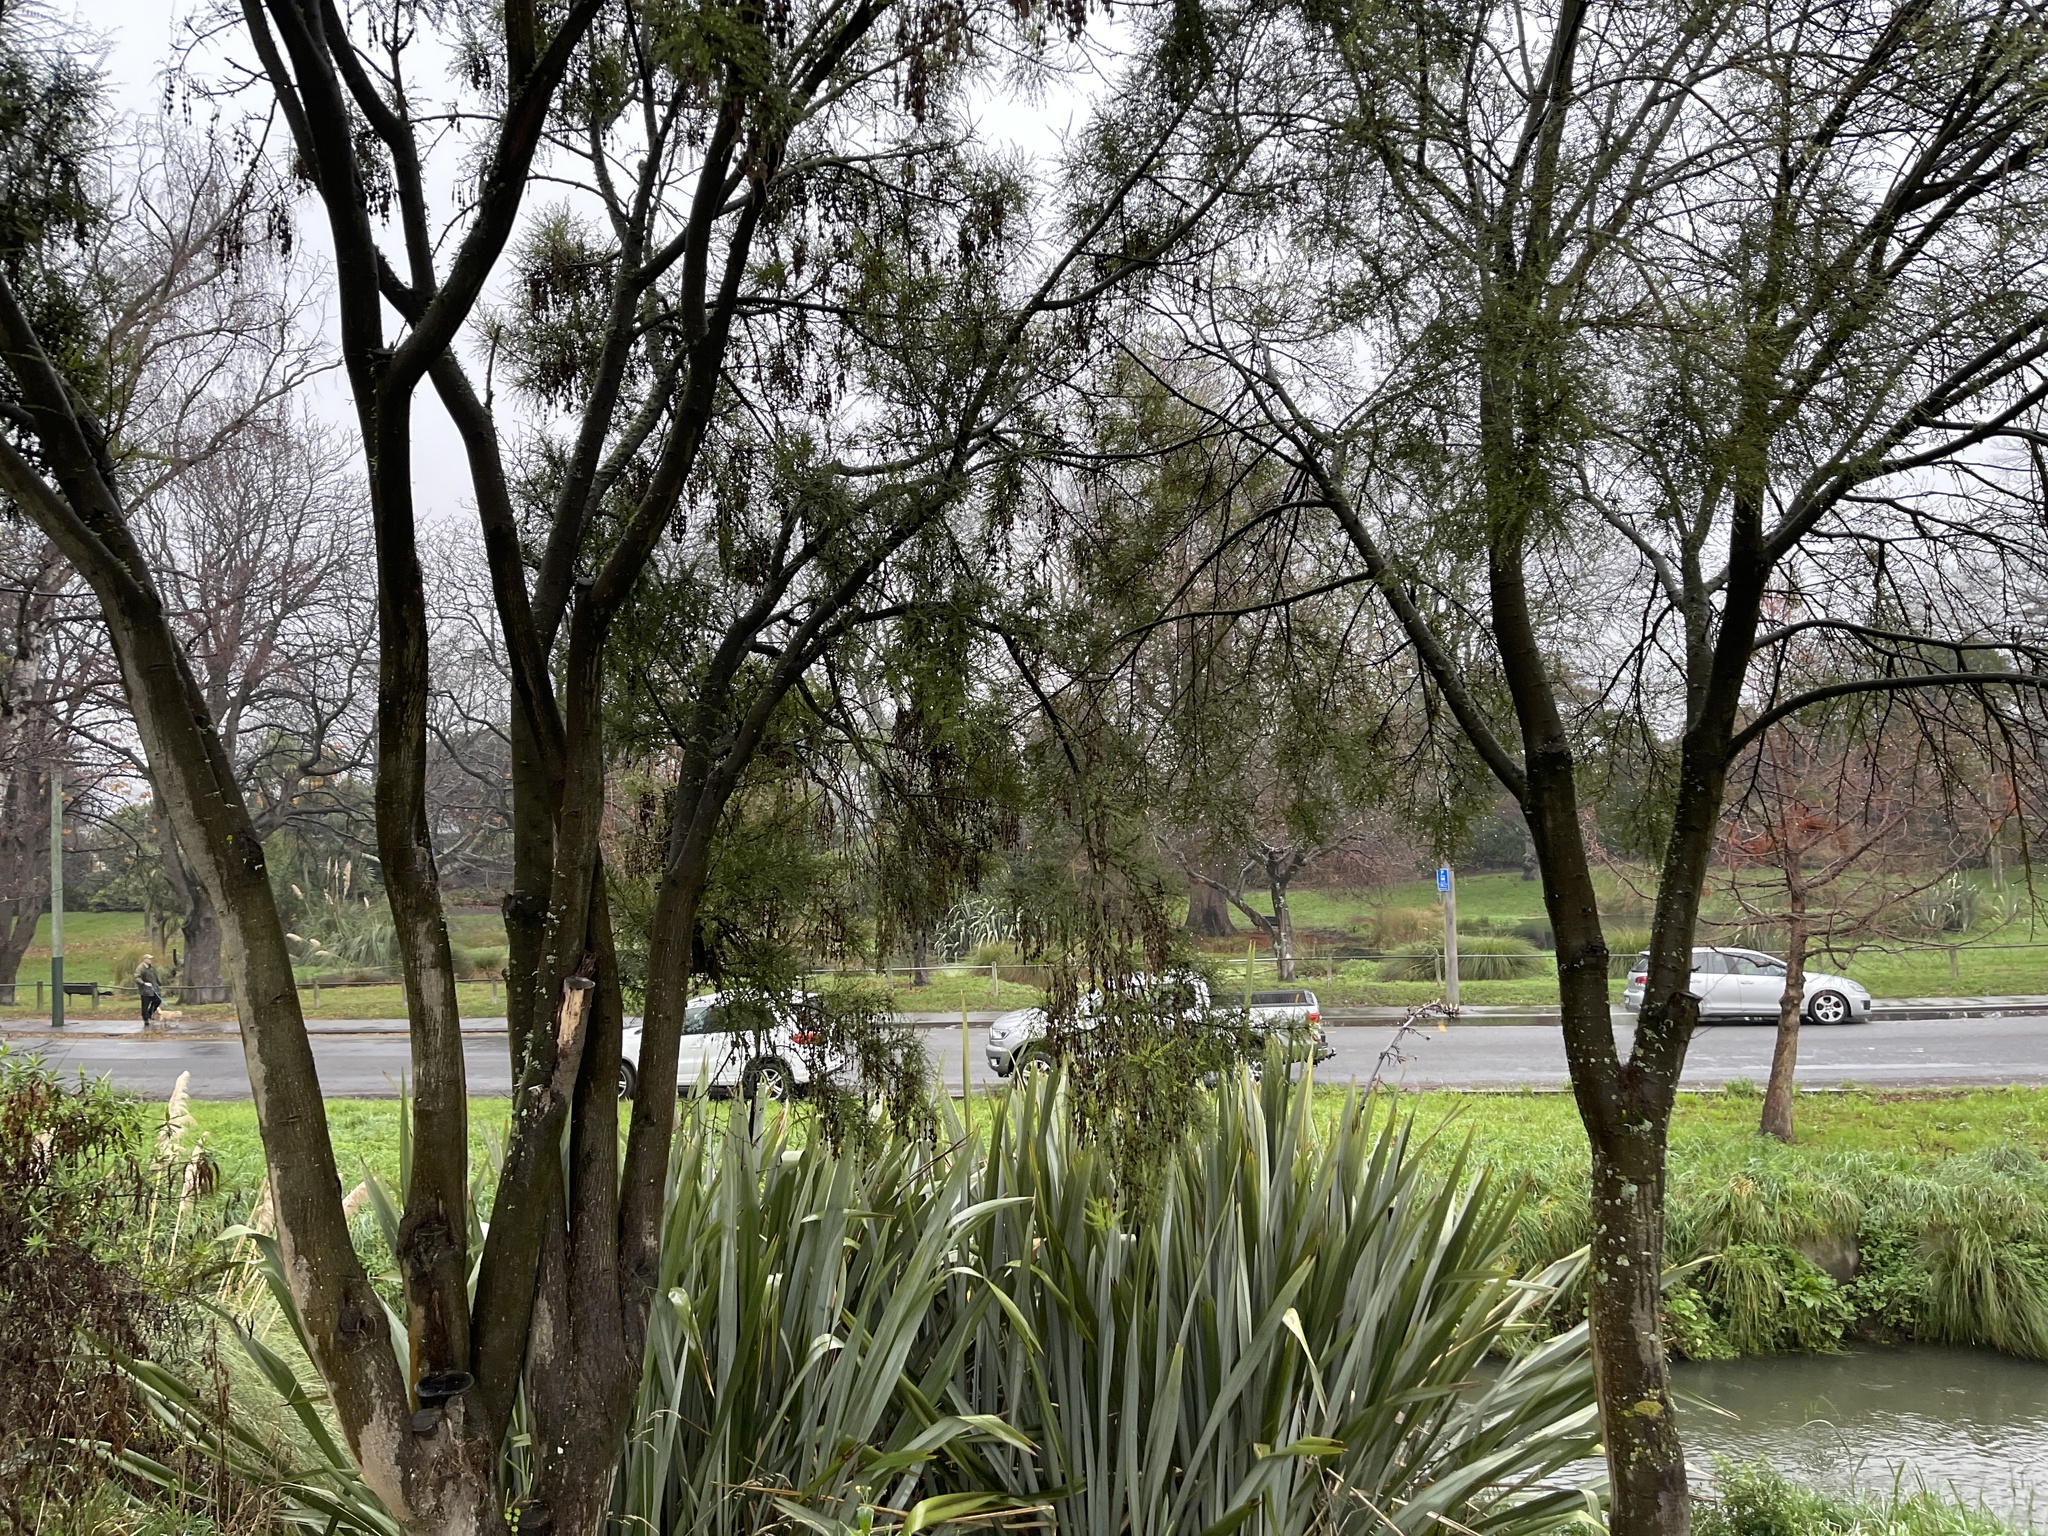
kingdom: Plantae
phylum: Tracheophyta
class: Magnoliopsida
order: Fabales
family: Fabaceae
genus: Sophora
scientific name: Sophora microphylla
